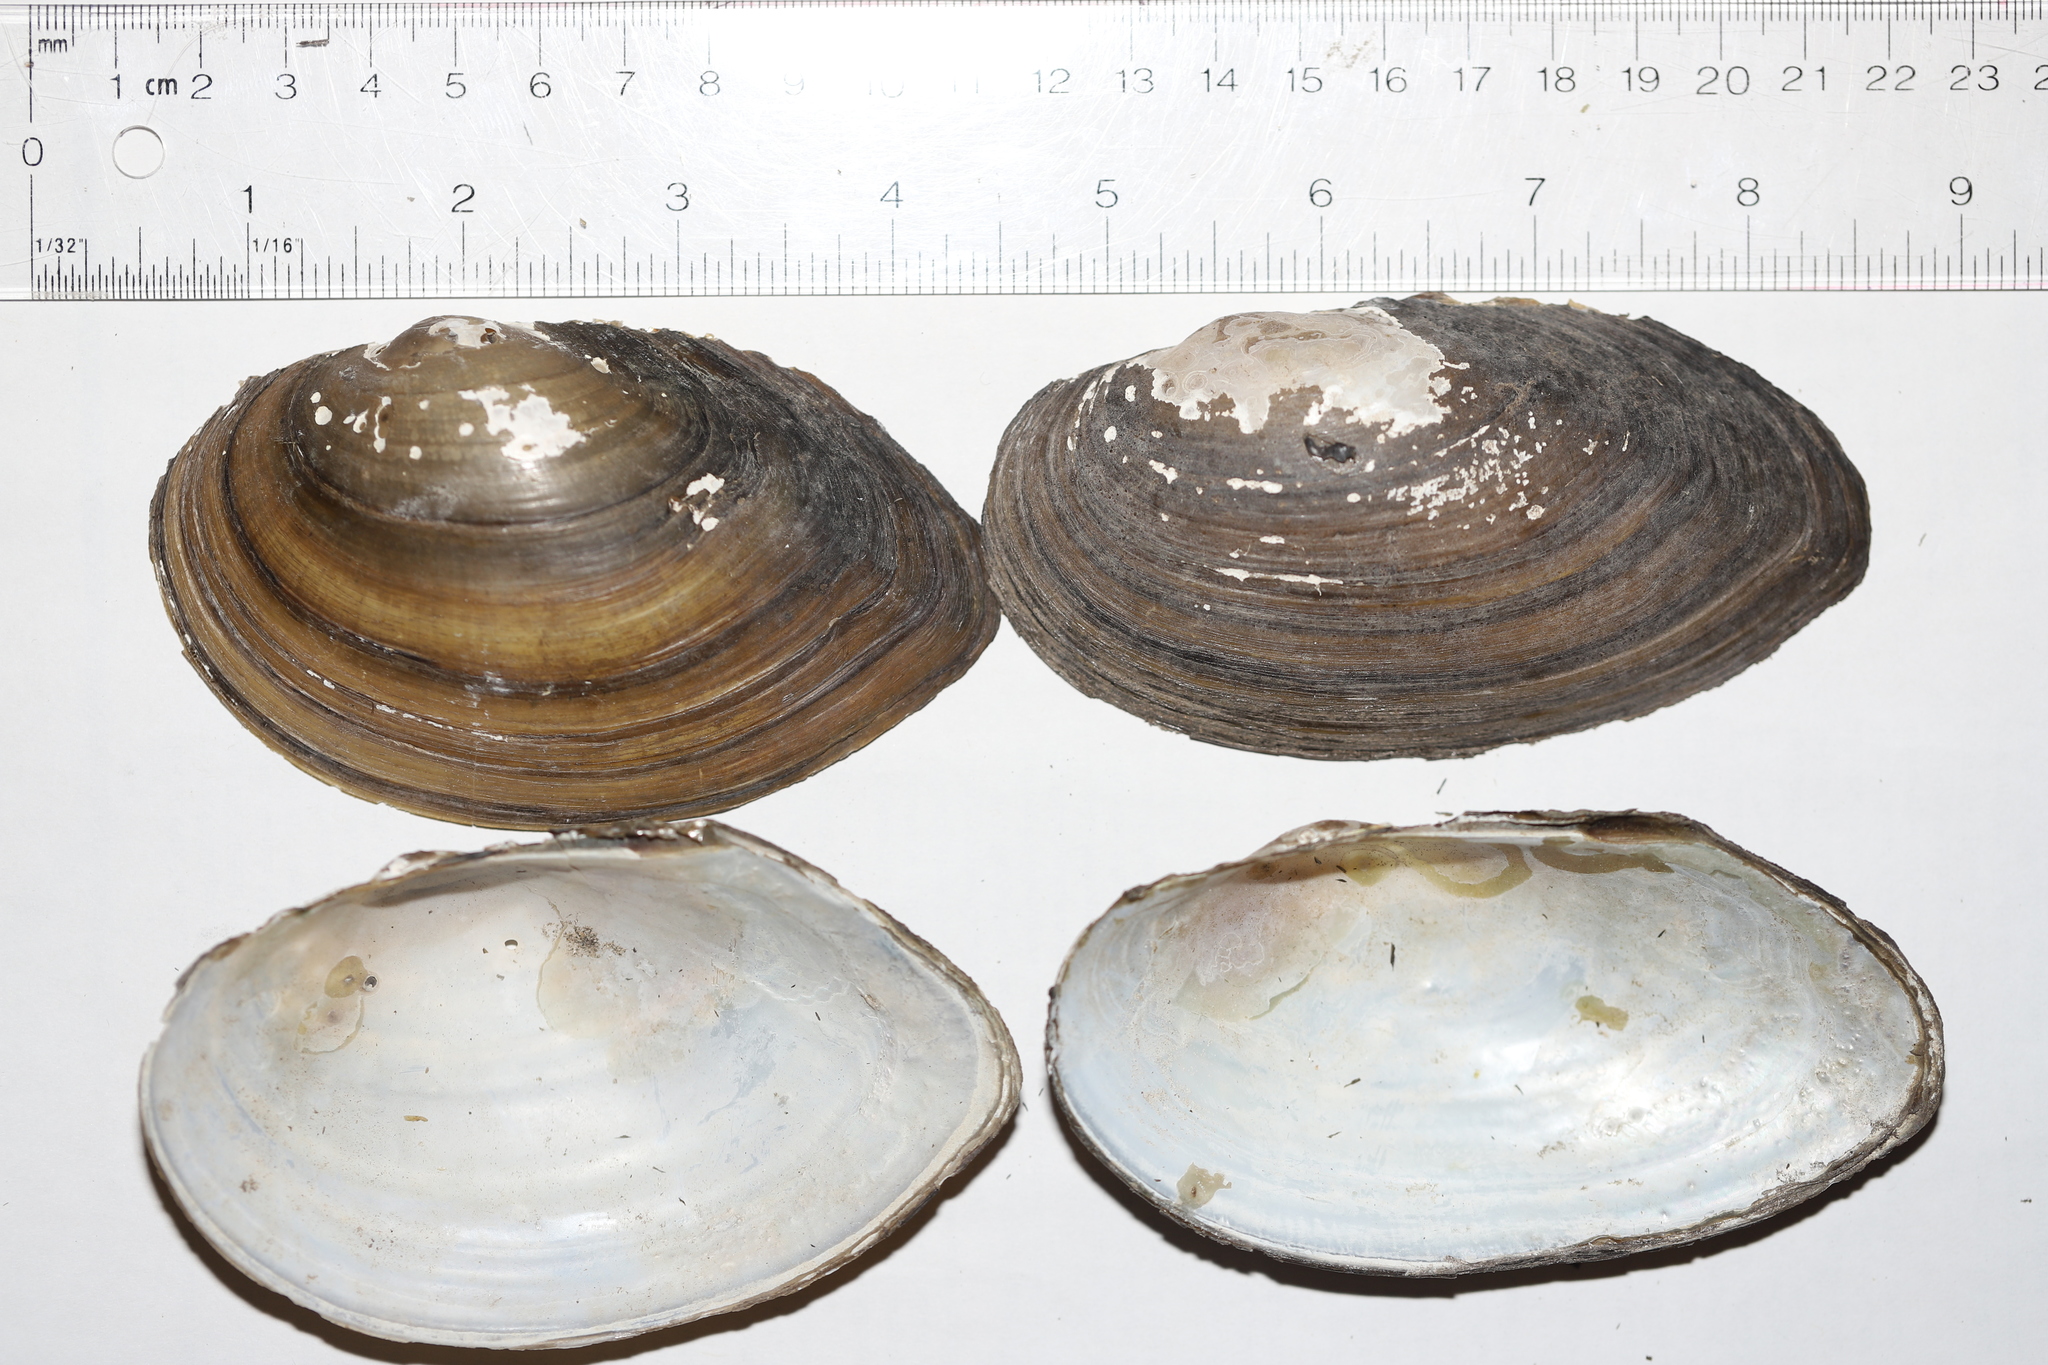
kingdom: Animalia
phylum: Mollusca
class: Bivalvia
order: Unionida
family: Unionidae
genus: Pyganodon
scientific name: Pyganodon grandis
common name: Giant floater
